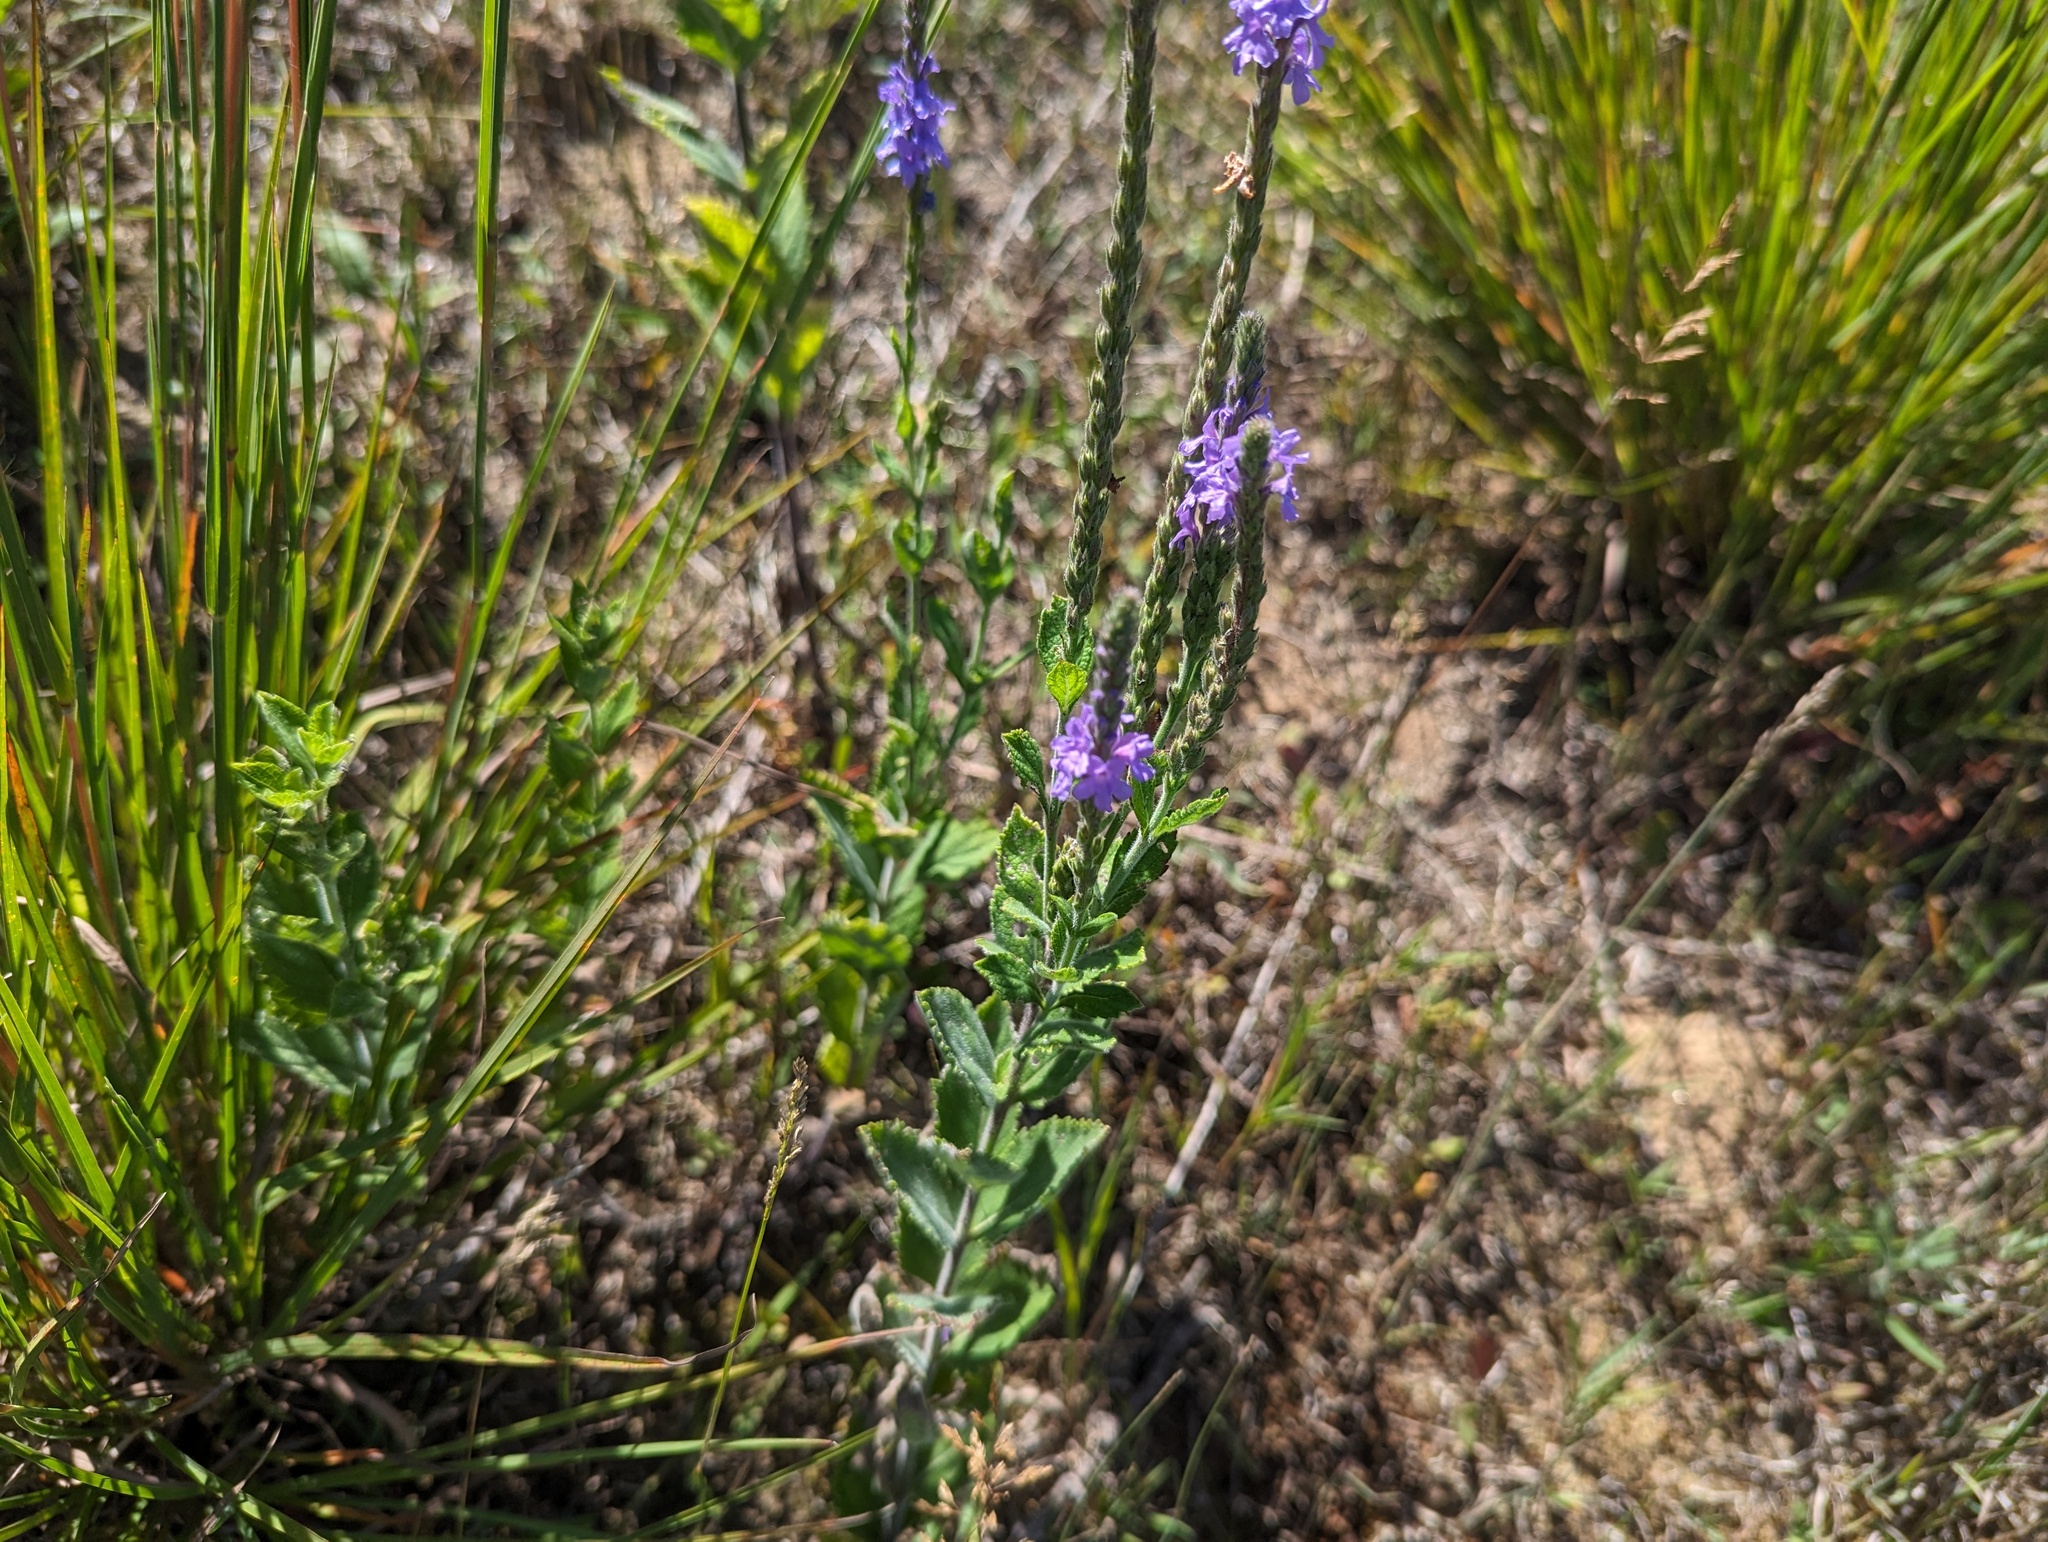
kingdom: Plantae
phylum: Tracheophyta
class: Magnoliopsida
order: Lamiales
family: Verbenaceae
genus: Verbena
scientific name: Verbena stricta
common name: Hoary vervain
